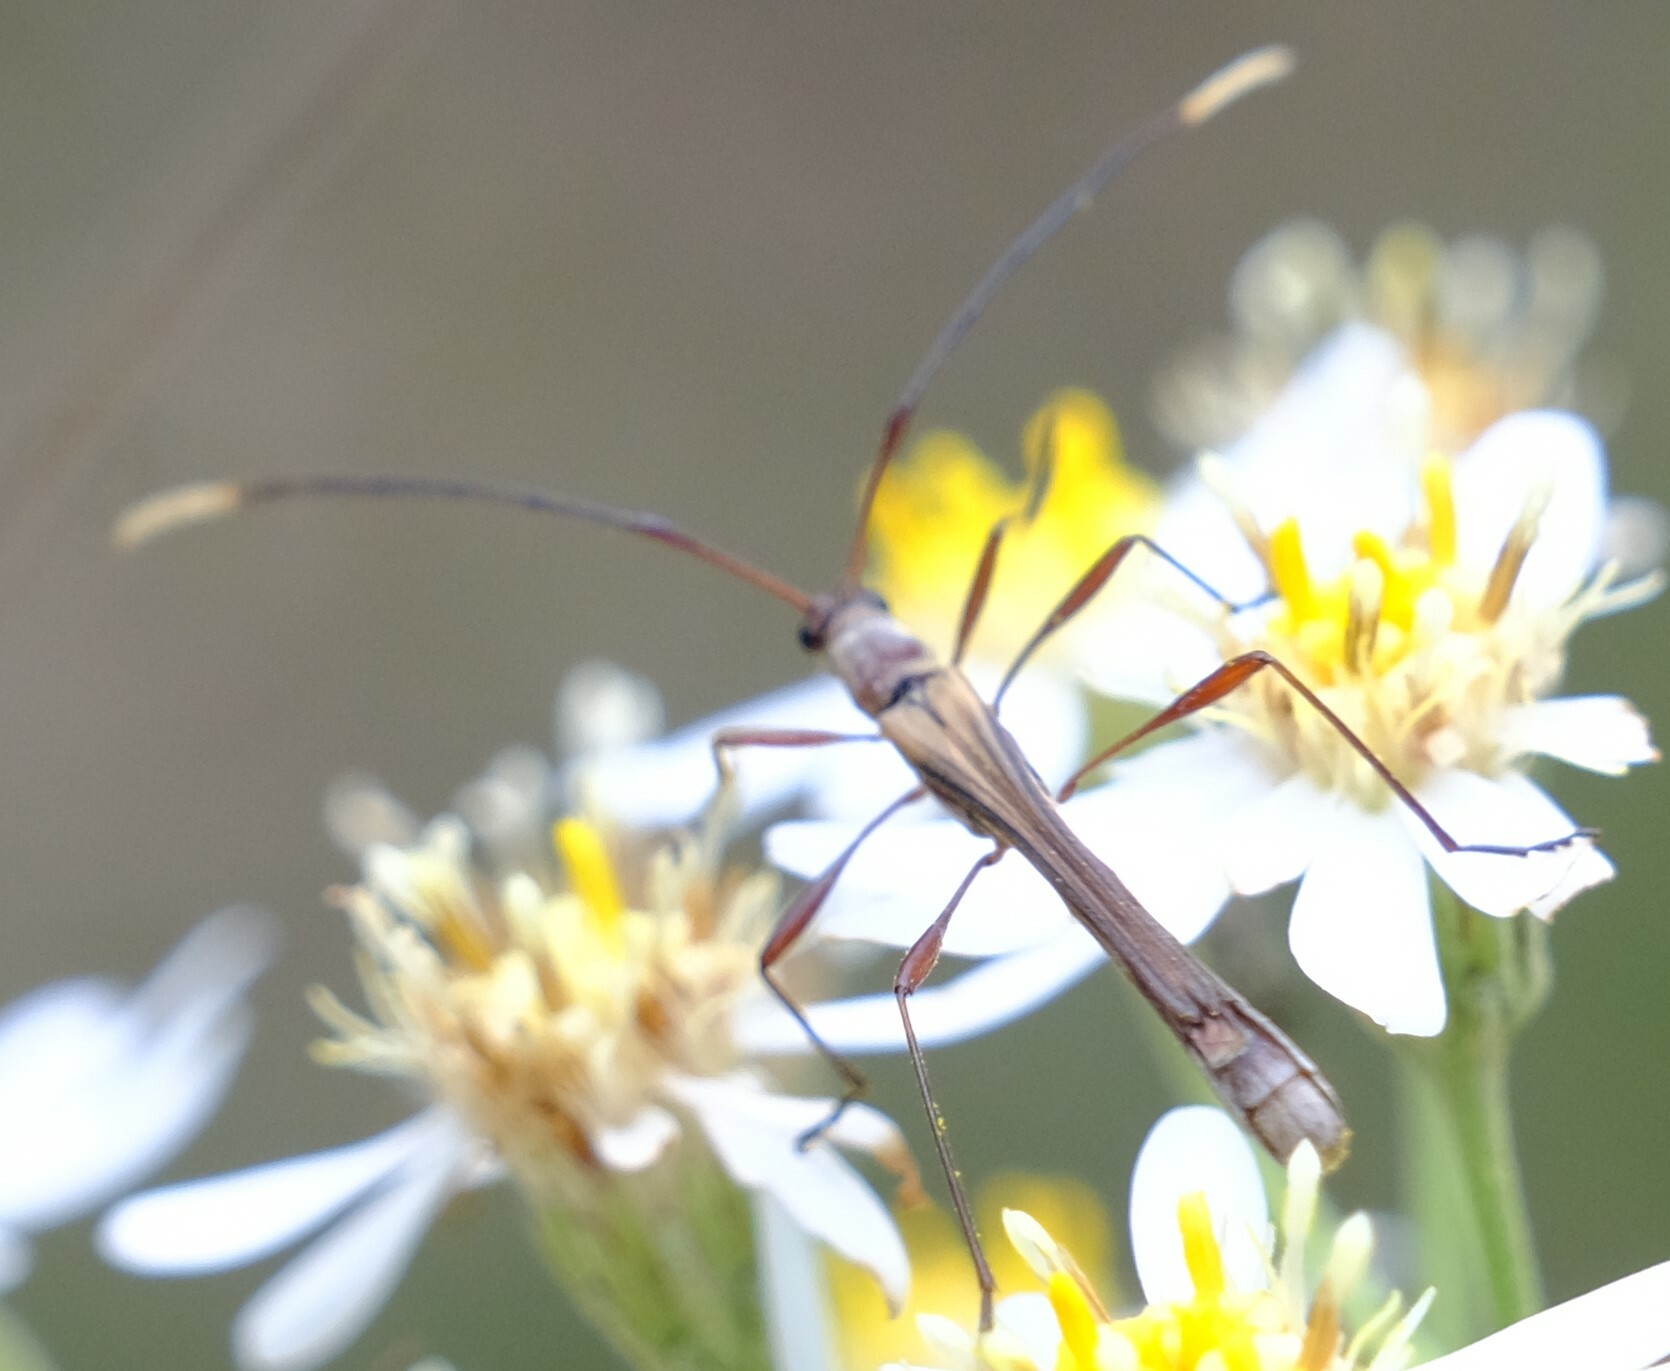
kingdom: Animalia
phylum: Arthropoda
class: Insecta
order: Coleoptera
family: Cerambycidae
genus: Enchoptera
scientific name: Enchoptera apicalis
